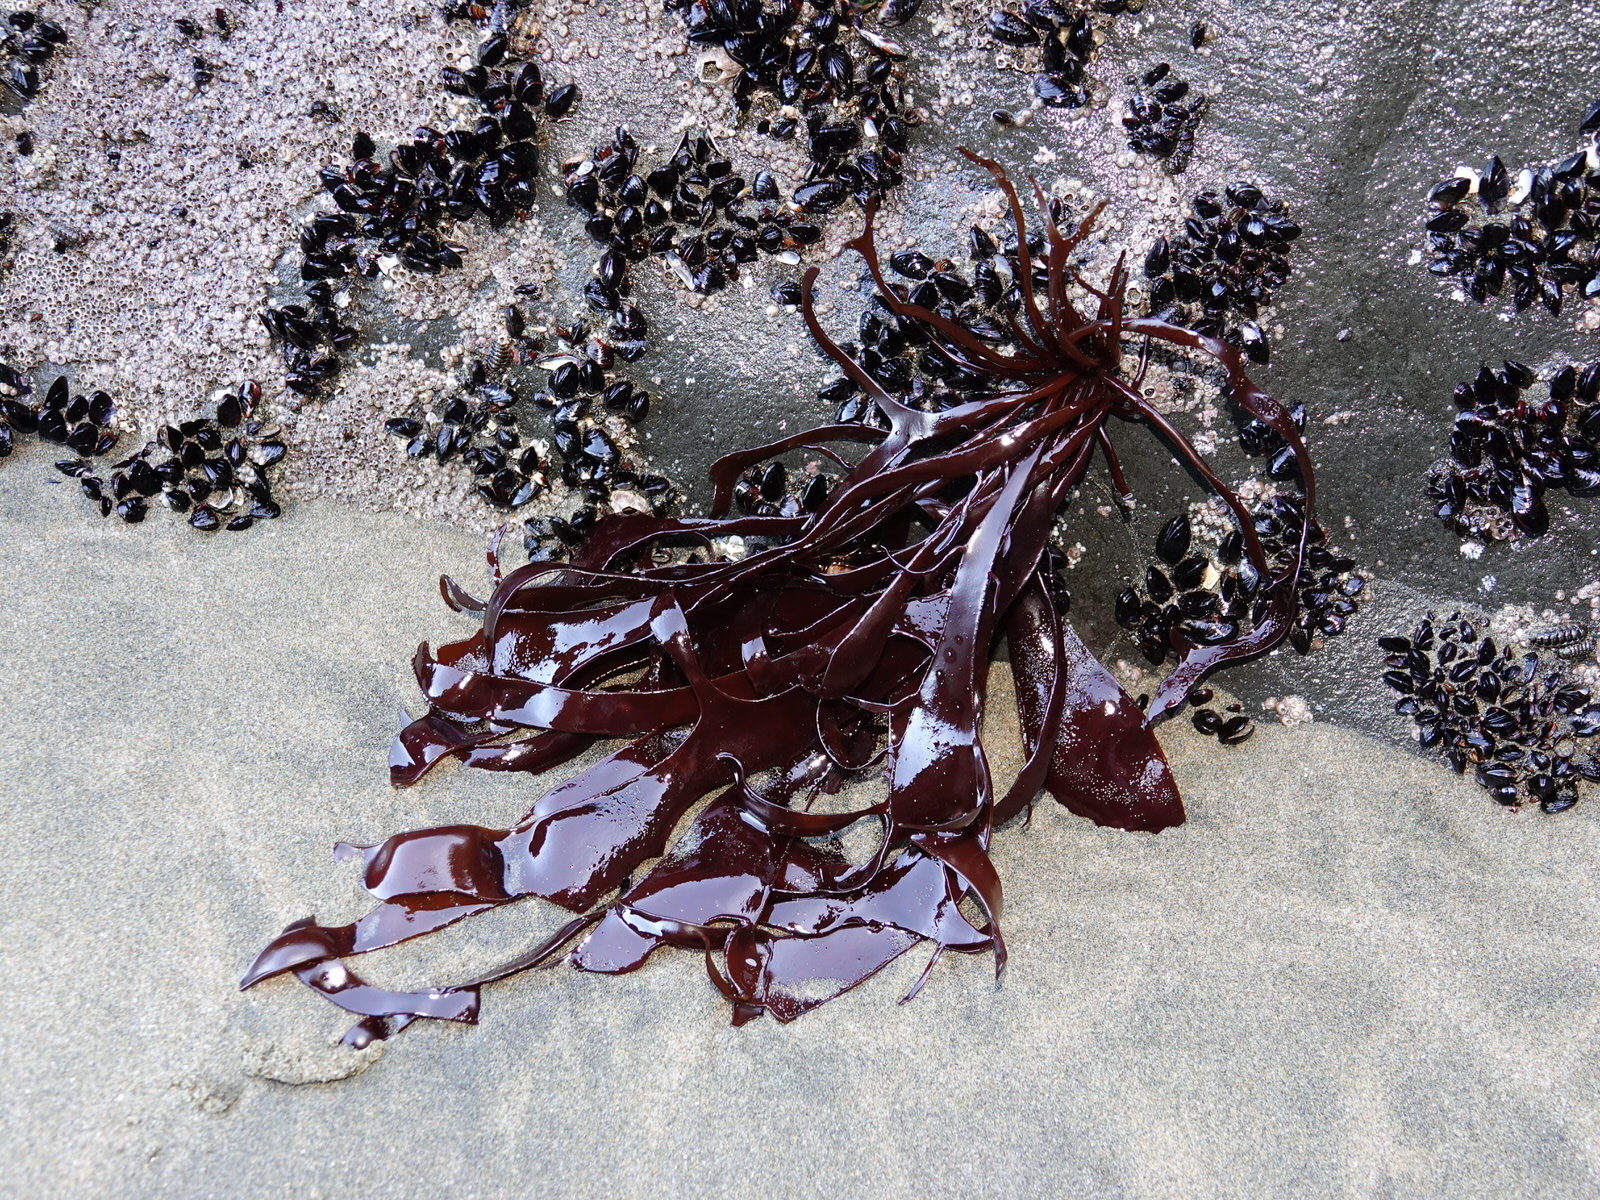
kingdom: Plantae
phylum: Rhodophyta
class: Florideophyceae
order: Halymeniales
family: Halymeniaceae
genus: Pachymenia
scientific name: Pachymenia lusoria
